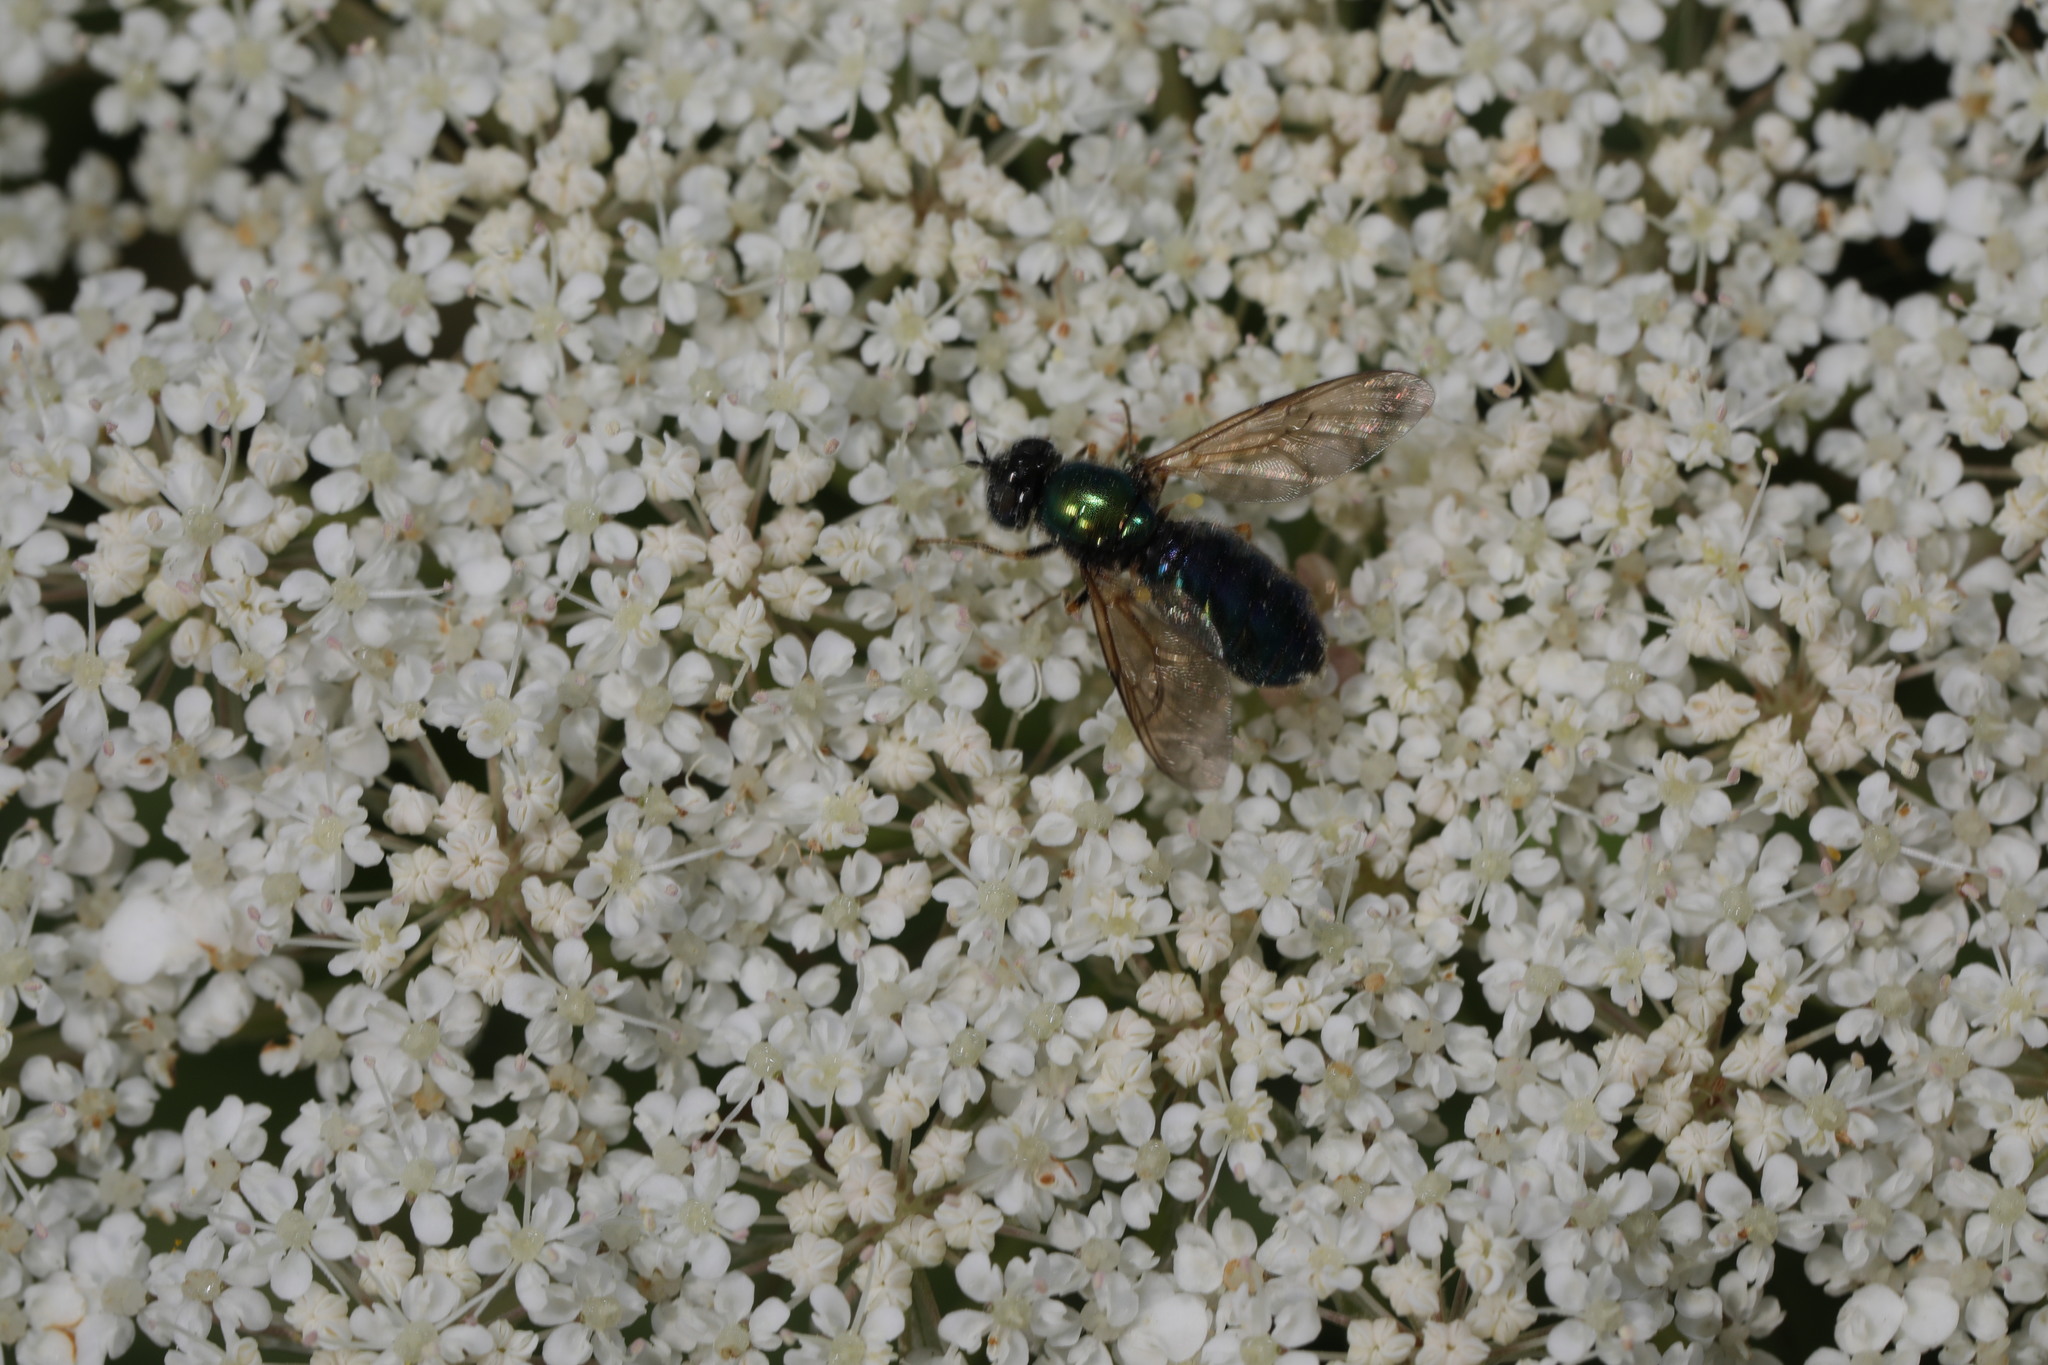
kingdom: Animalia
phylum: Arthropoda
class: Insecta
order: Diptera
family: Stratiomyidae
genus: Chloromyia
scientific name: Chloromyia formosa
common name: Soldier fly
